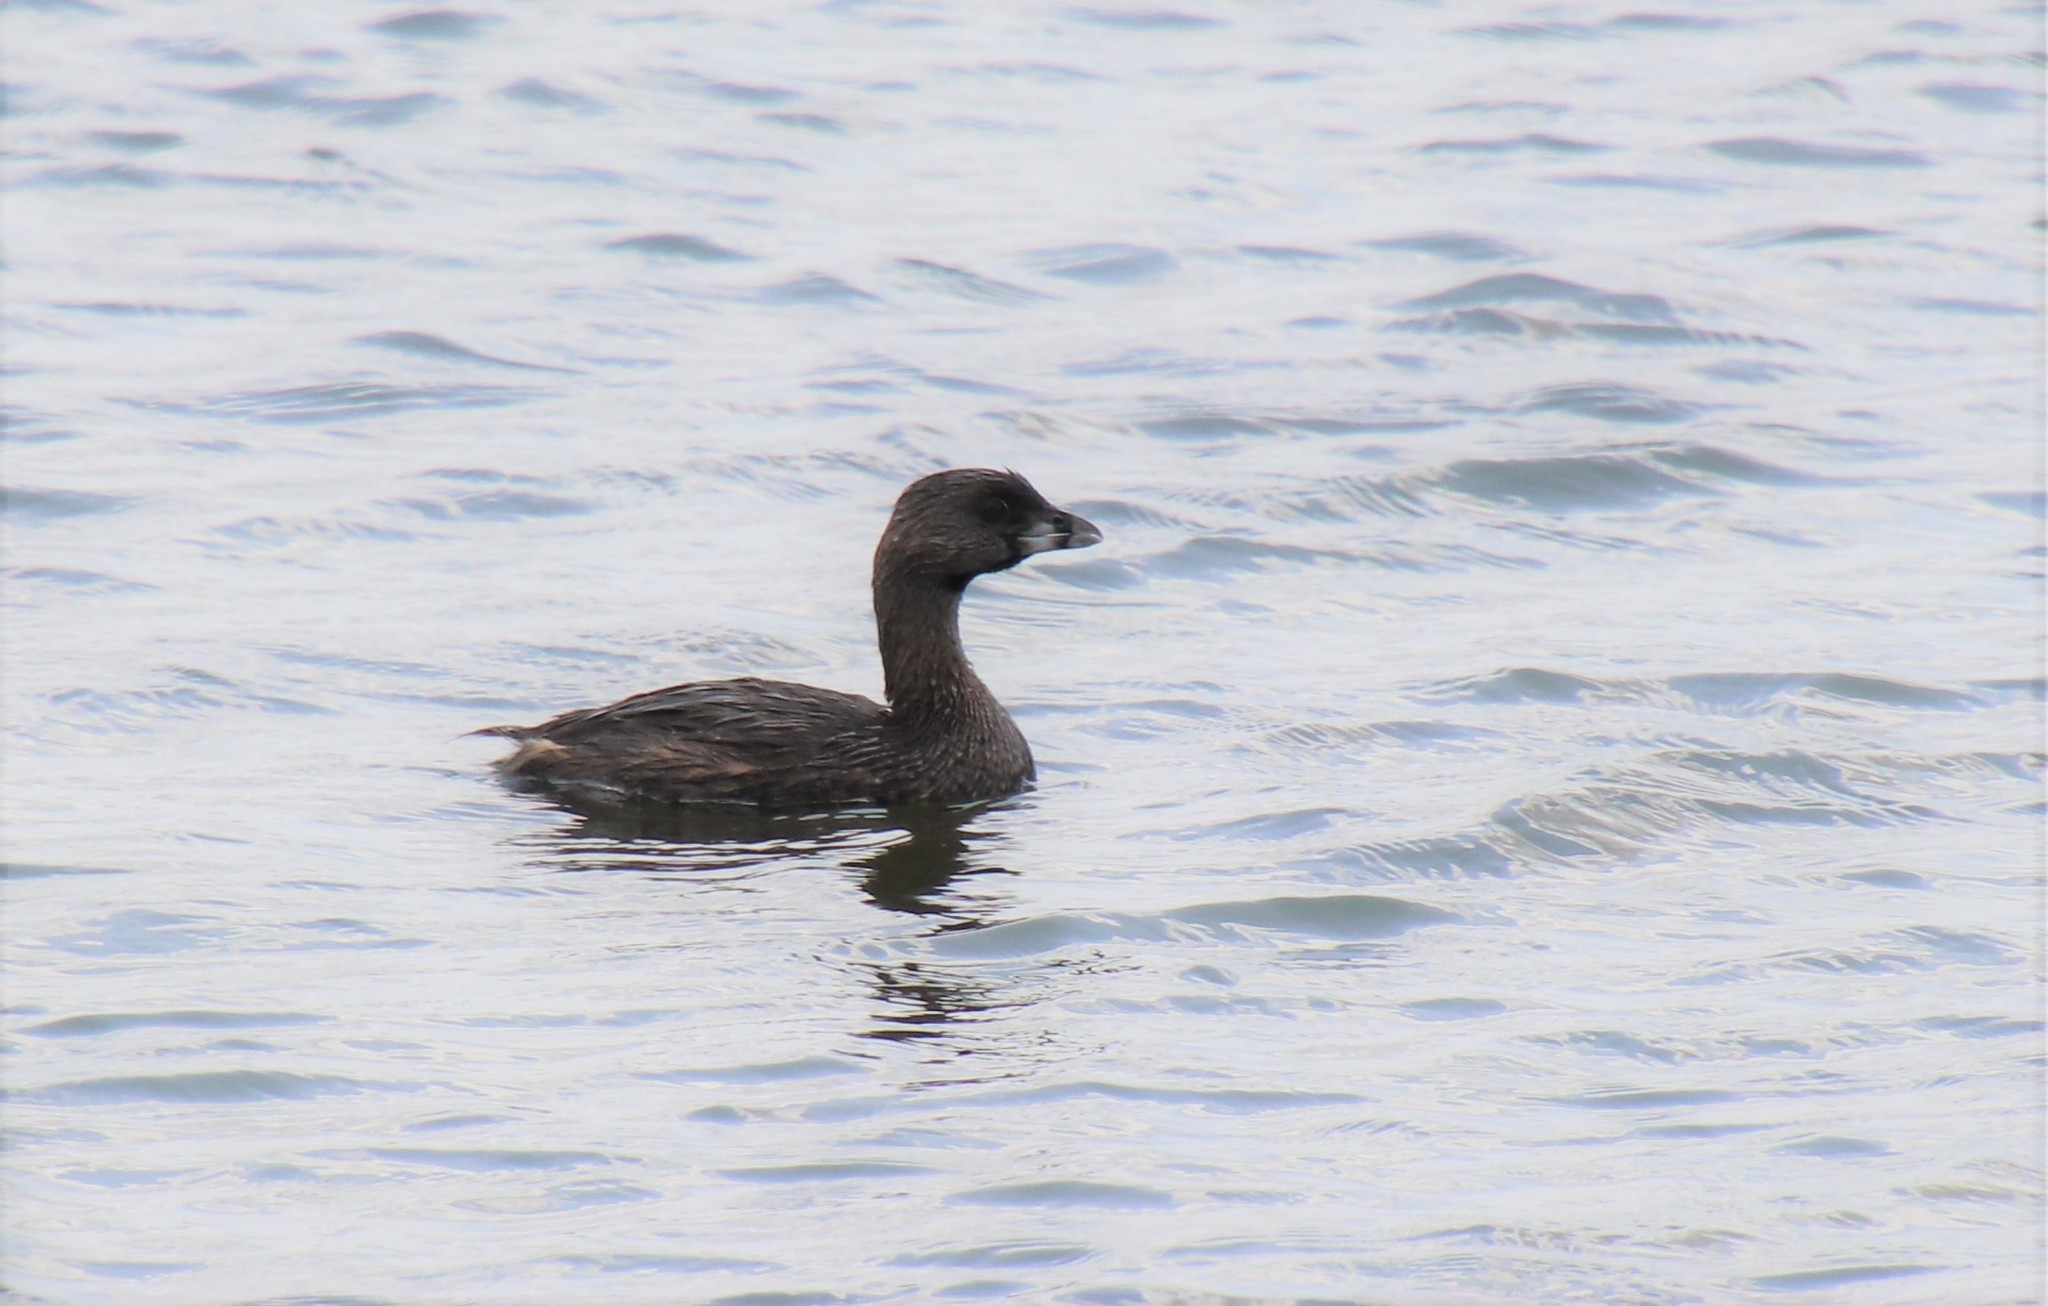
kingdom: Animalia
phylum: Chordata
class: Aves
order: Podicipediformes
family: Podicipedidae
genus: Podilymbus
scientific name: Podilymbus podiceps
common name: Pied-billed grebe
